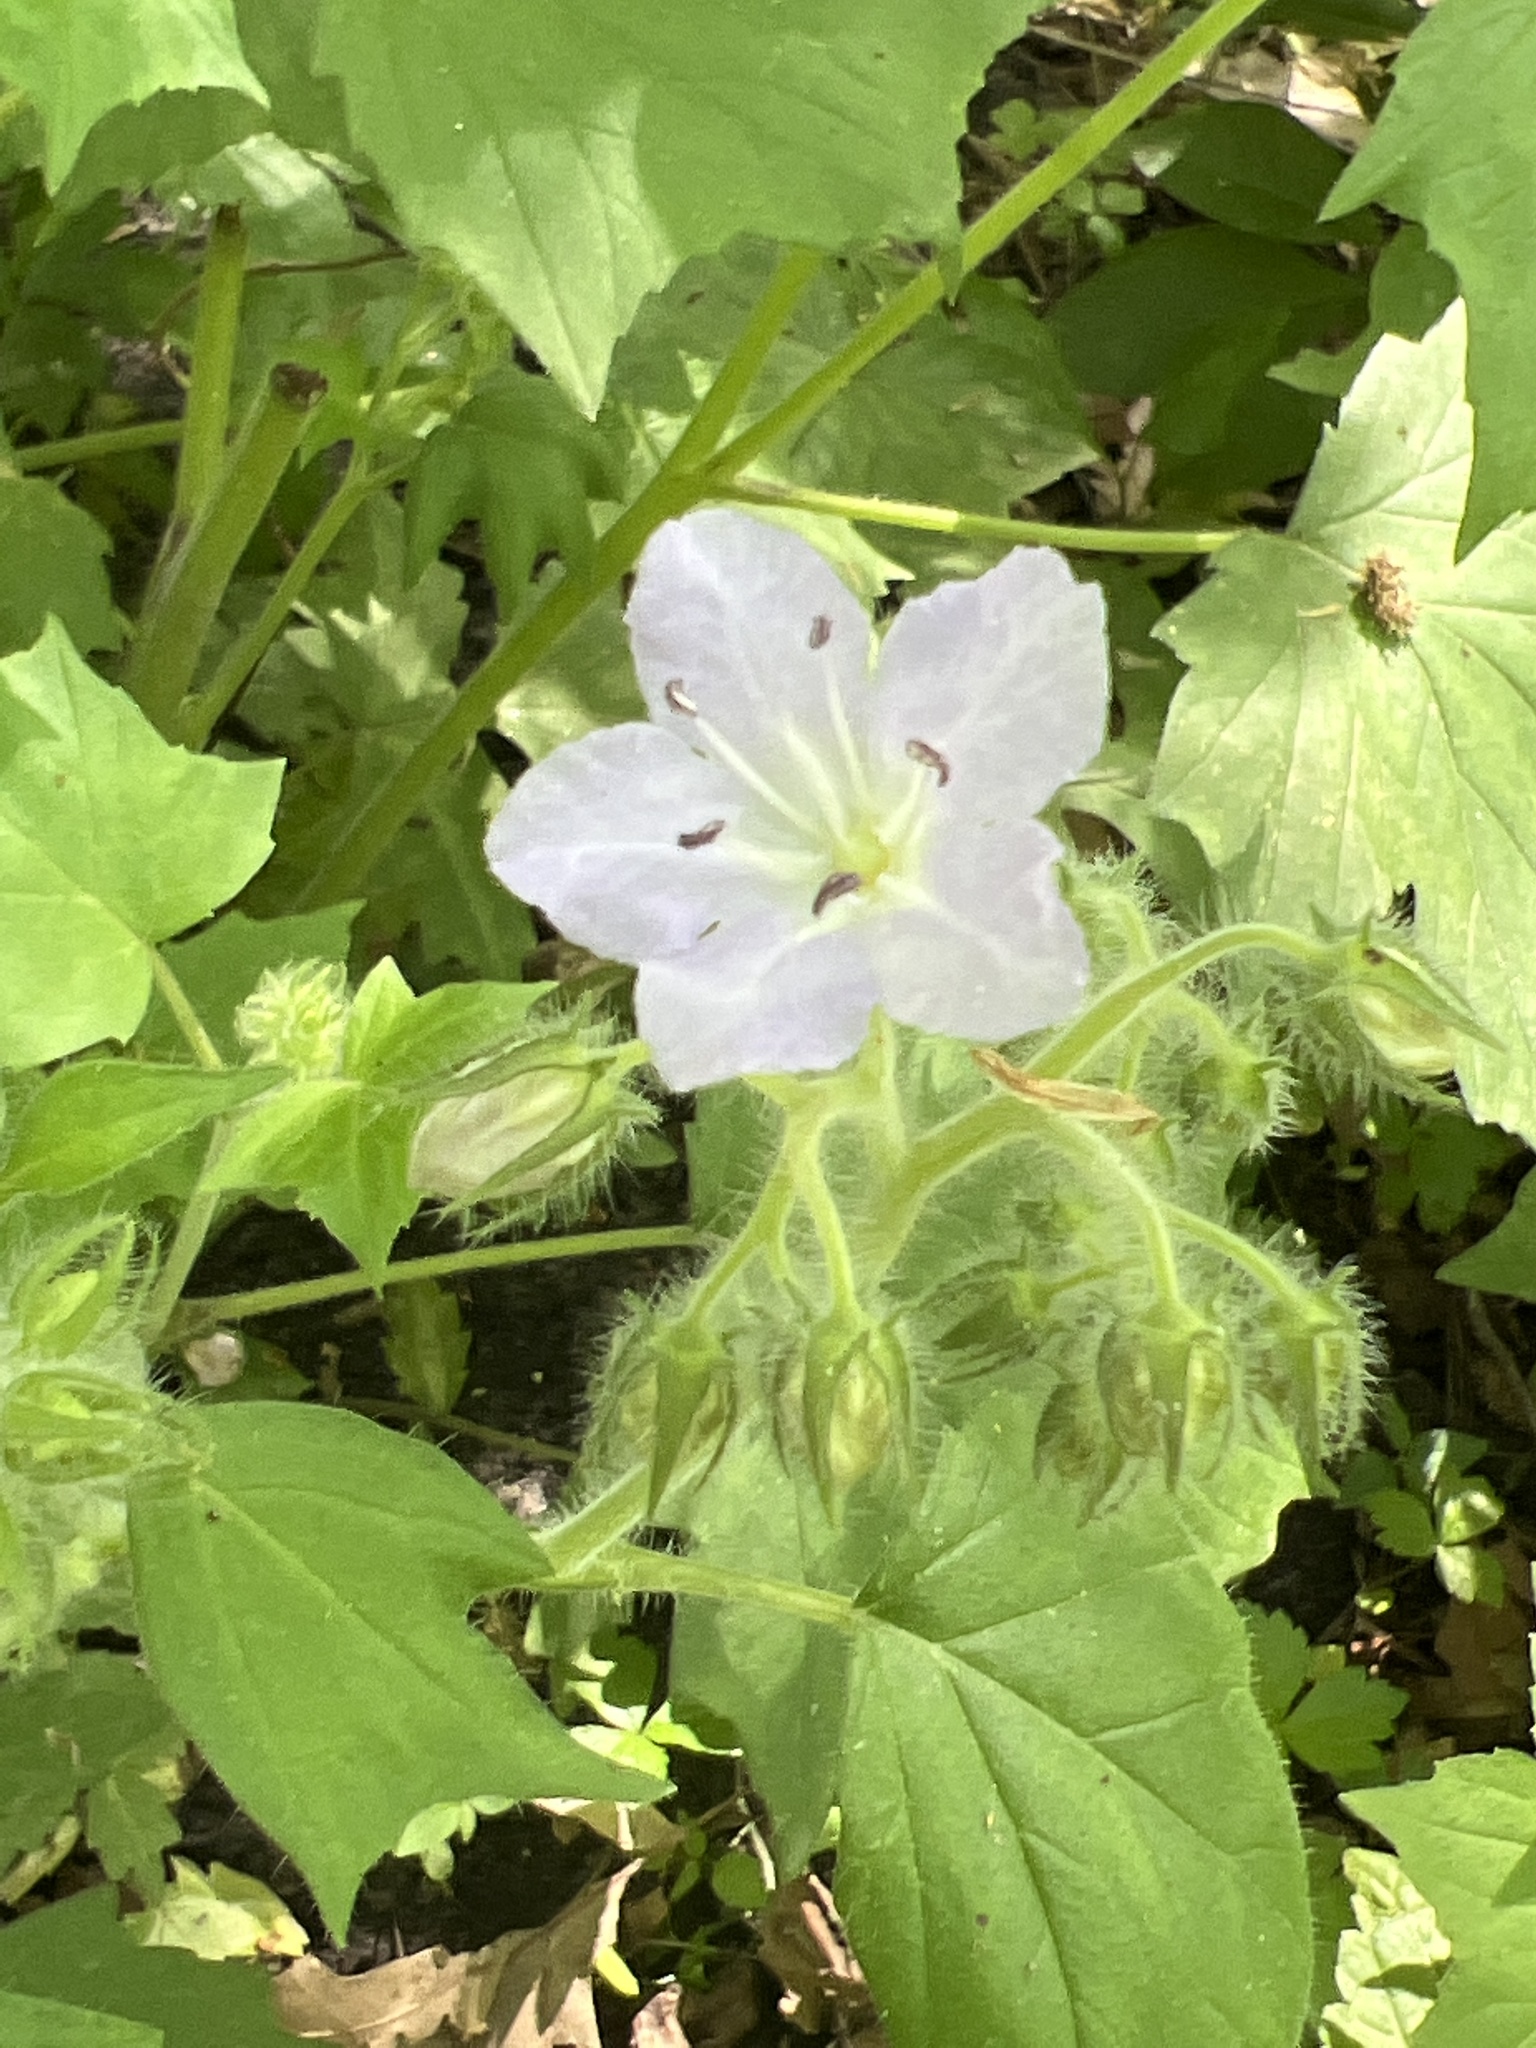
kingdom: Plantae
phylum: Tracheophyta
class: Magnoliopsida
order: Boraginales
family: Hydrophyllaceae
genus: Hydrophyllum
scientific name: Hydrophyllum appendiculatum
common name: Appendaged waterleaf
